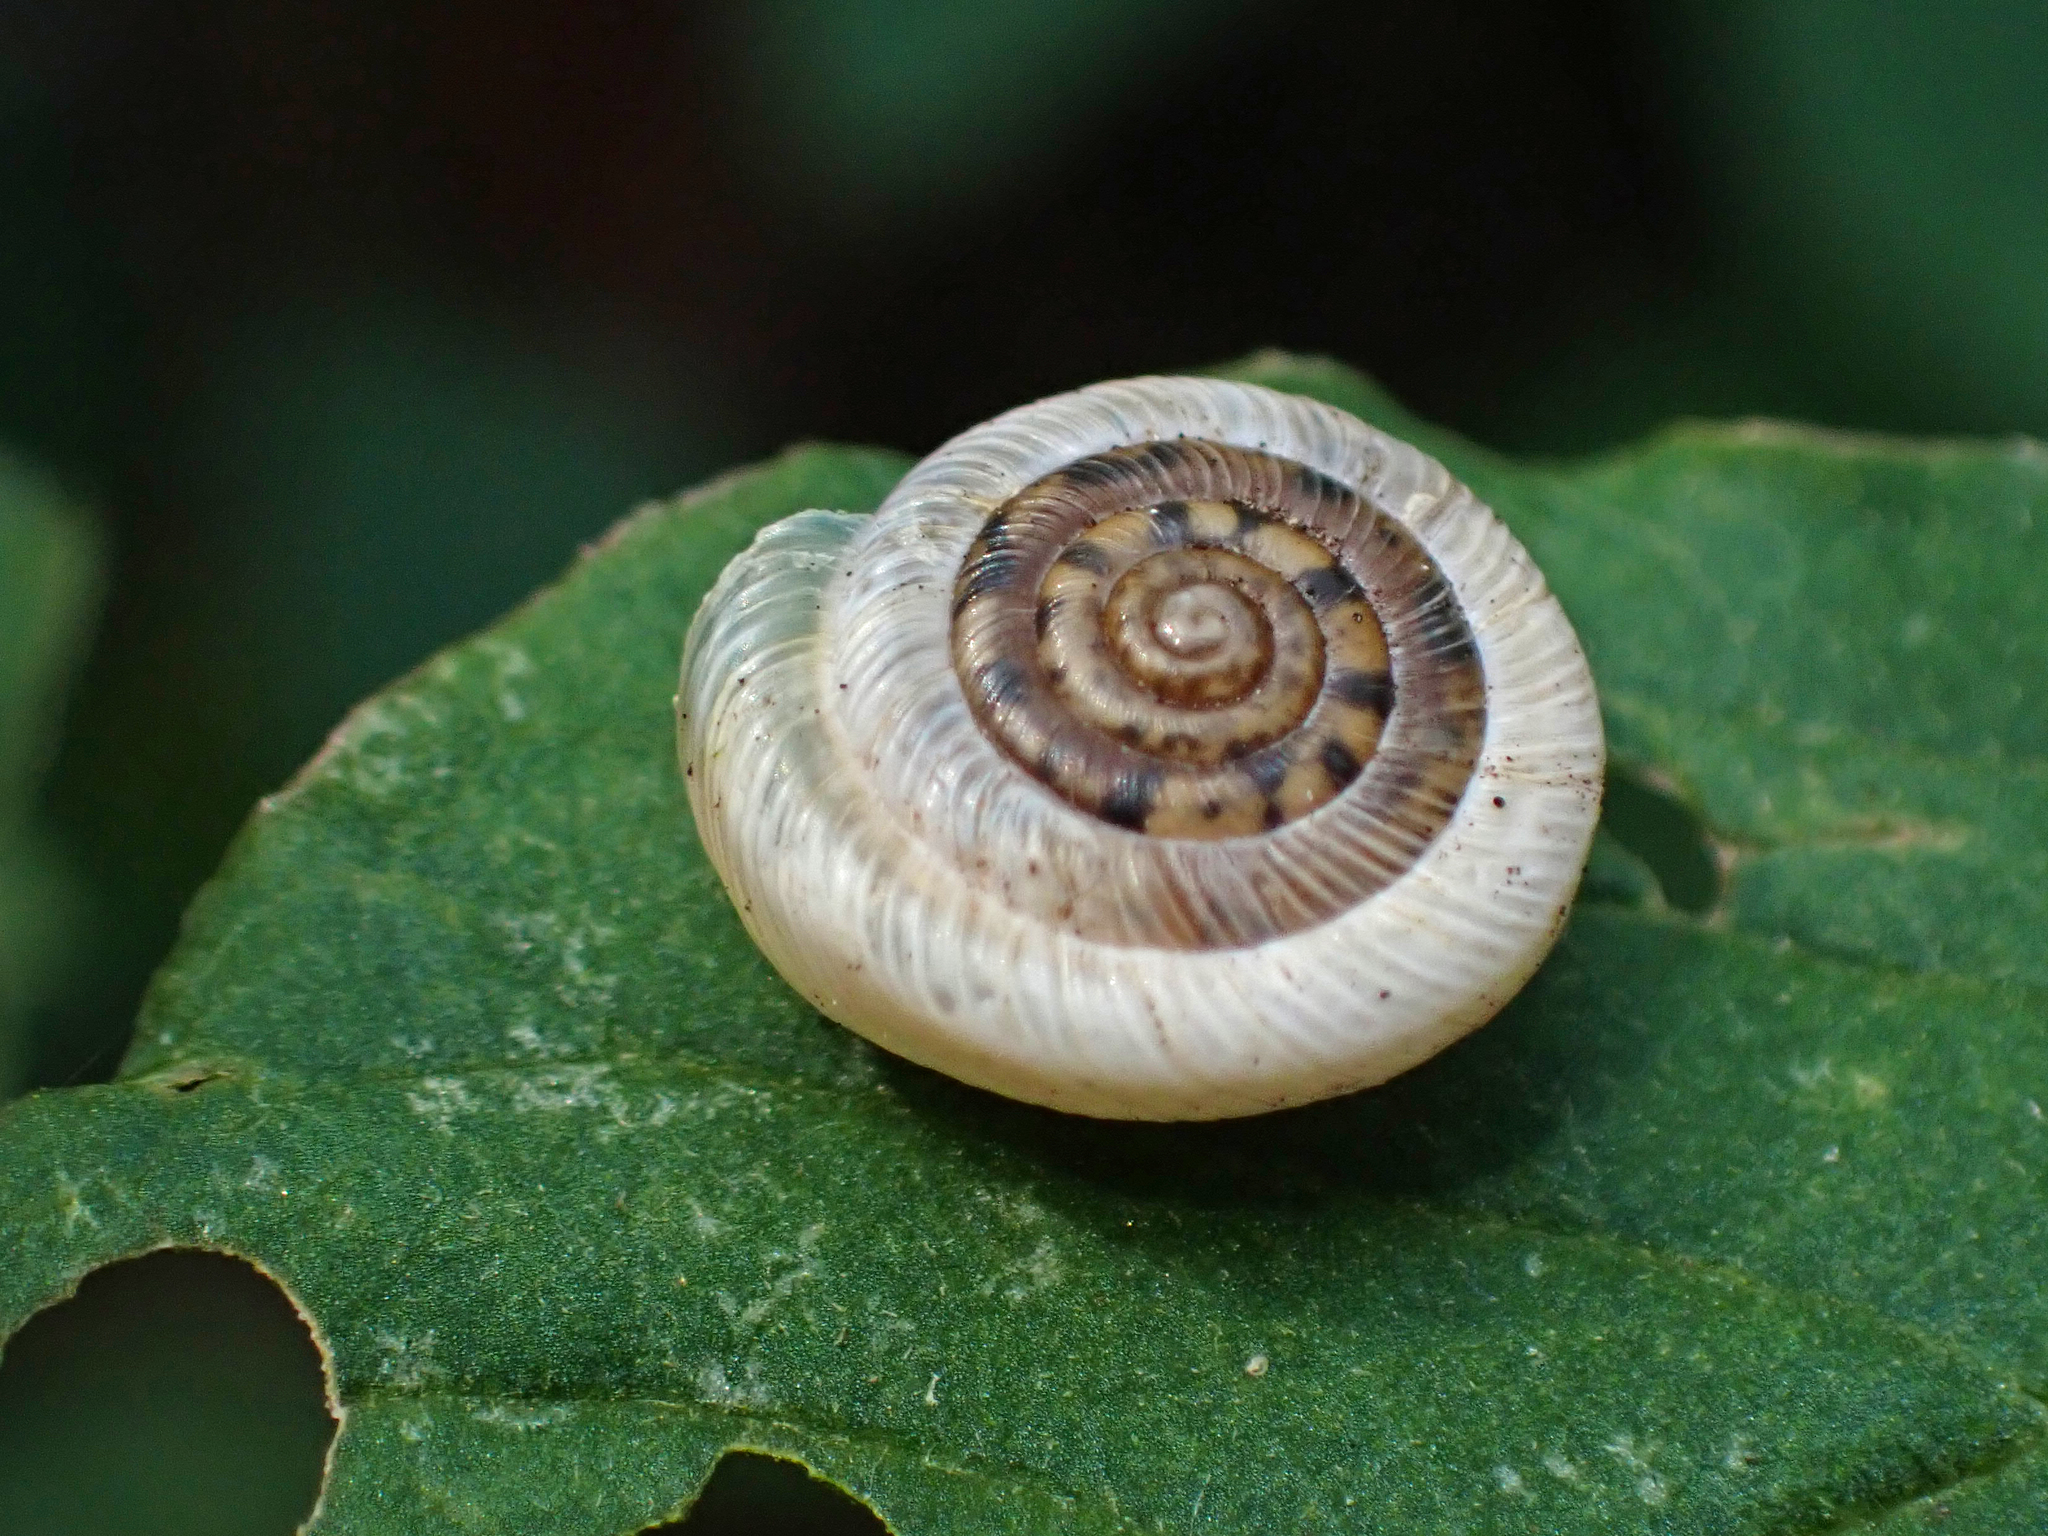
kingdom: Animalia
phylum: Mollusca
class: Gastropoda
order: Stylommatophora
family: Polygyridae
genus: Polygyra
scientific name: Polygyra cereolus
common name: Southern flatcone snail
